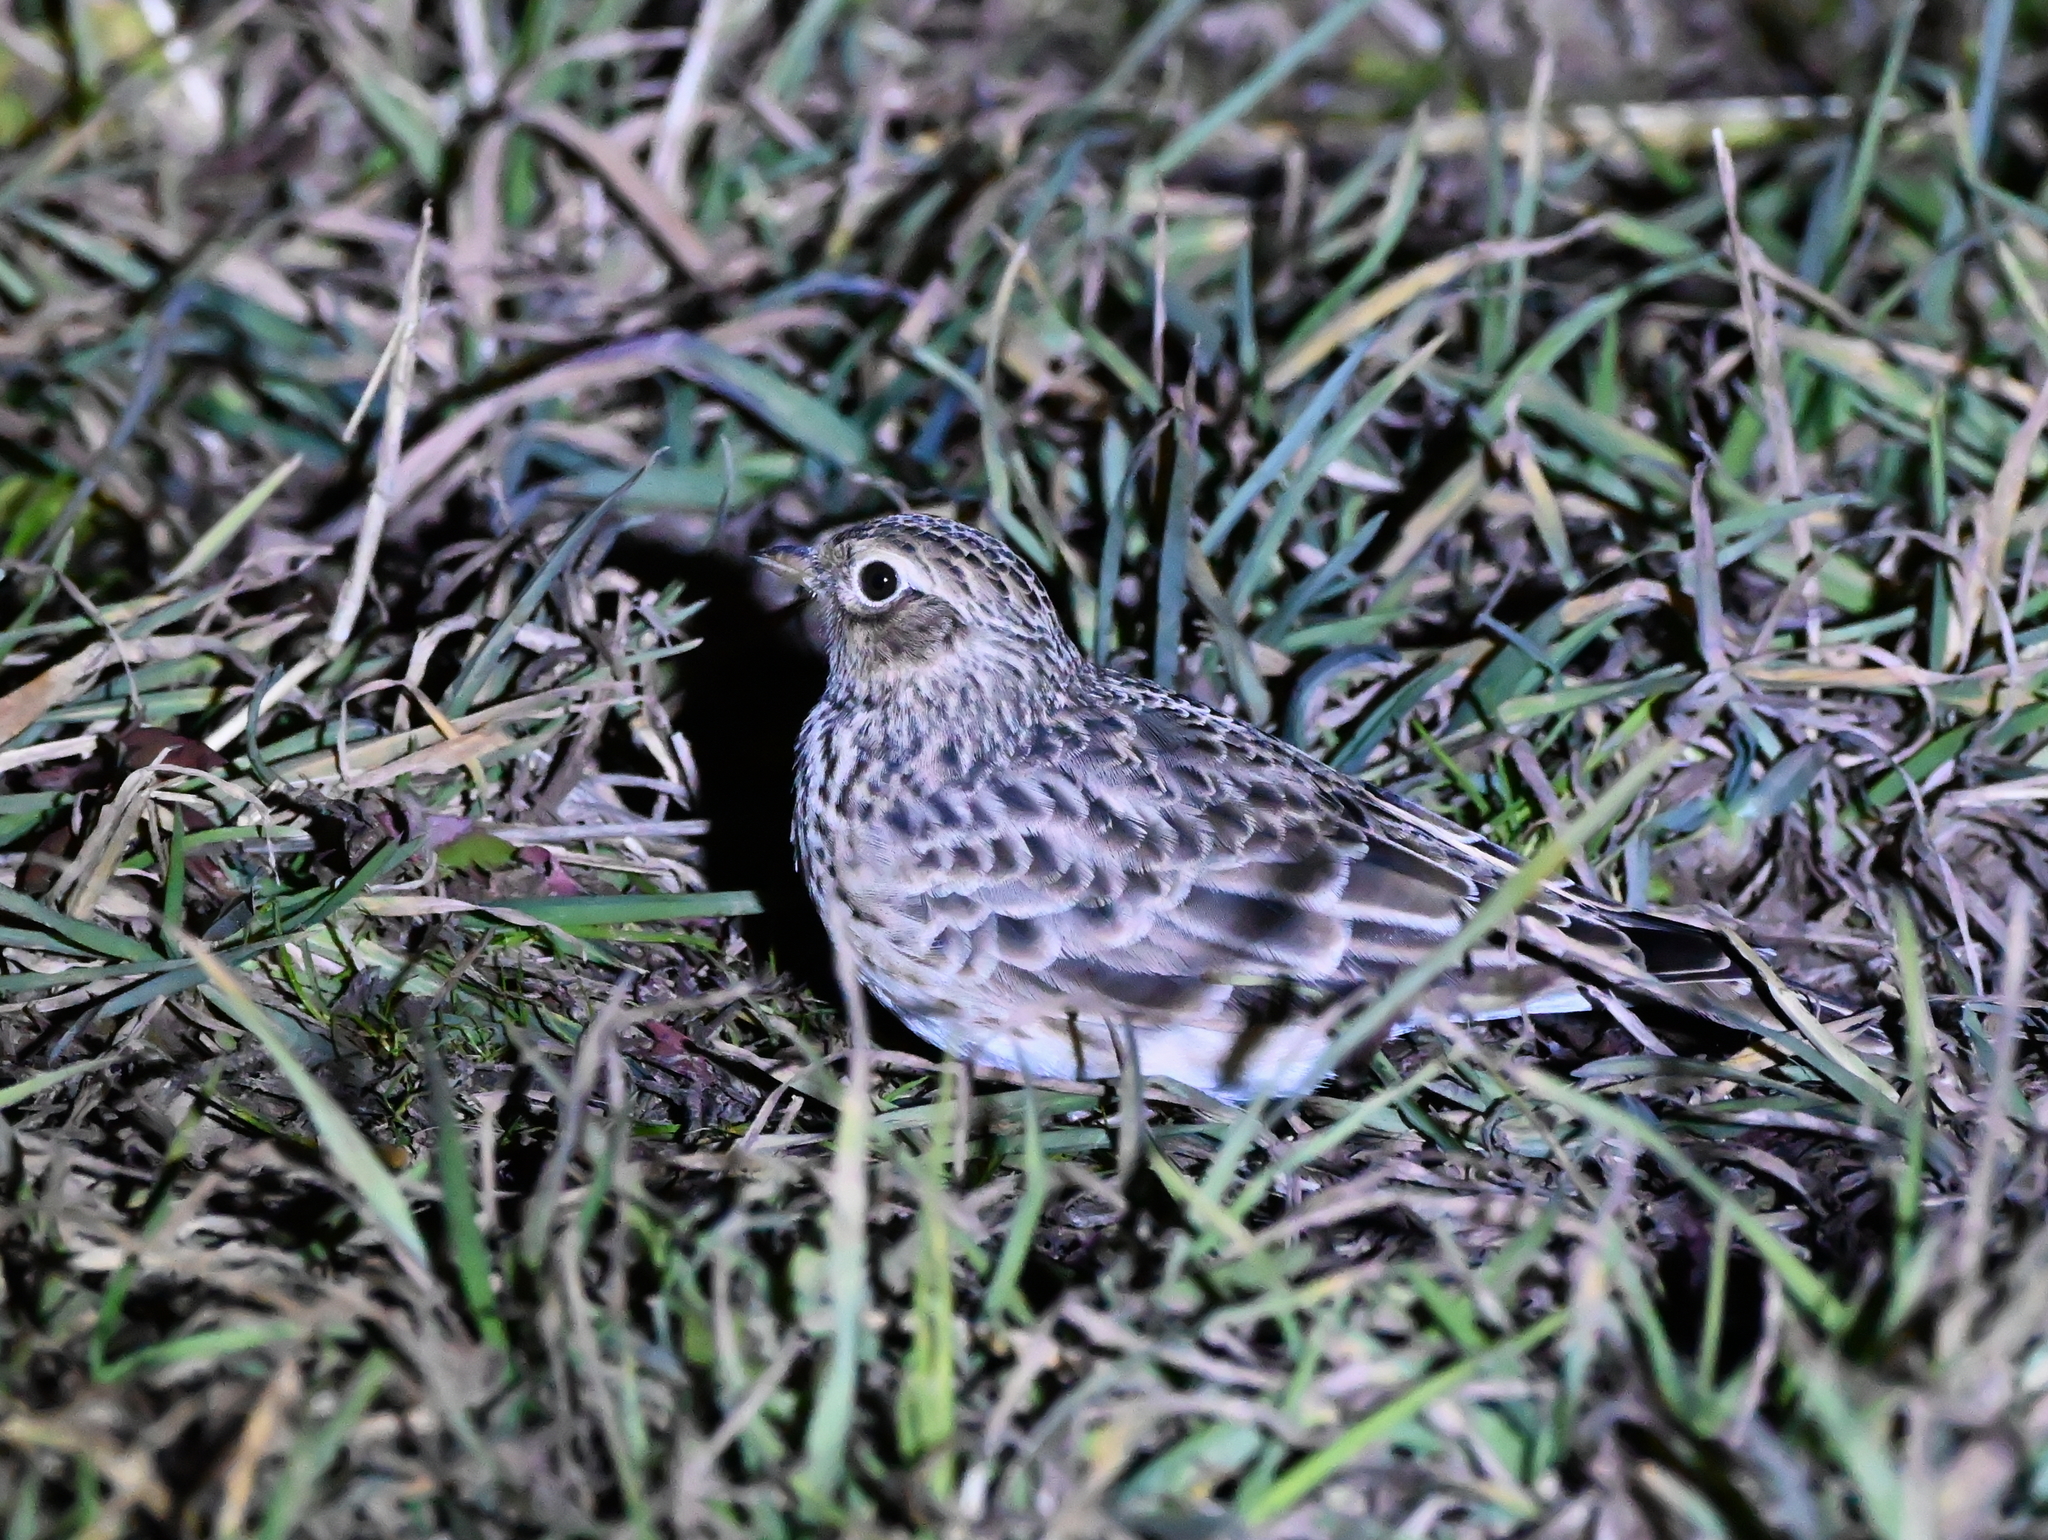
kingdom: Animalia
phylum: Chordata
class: Aves
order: Passeriformes
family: Alaudidae
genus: Alauda
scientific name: Alauda arvensis
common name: Eurasian skylark
